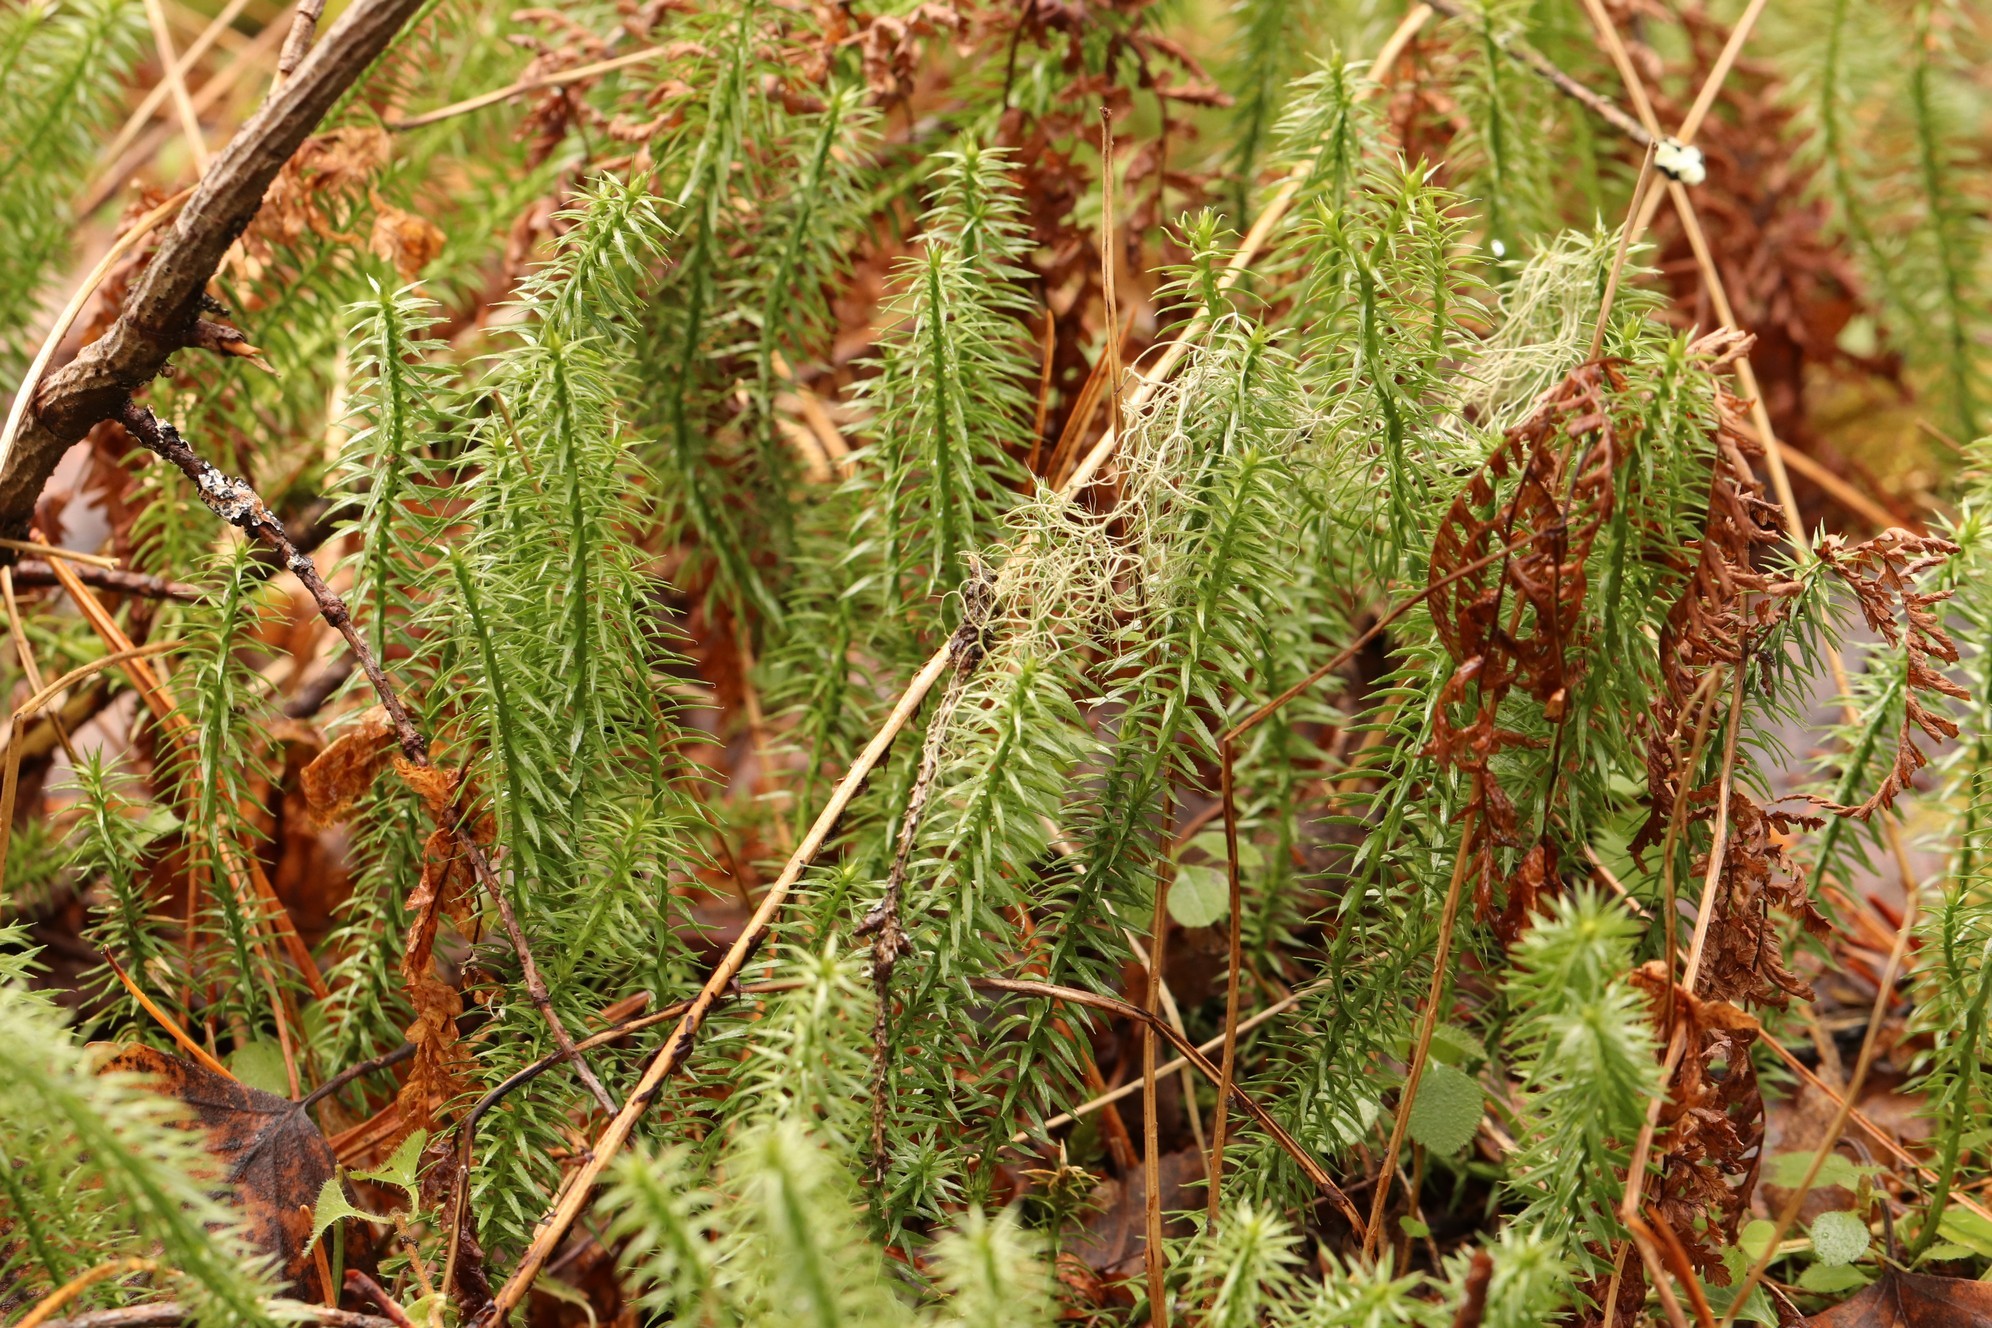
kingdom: Plantae
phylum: Tracheophyta
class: Lycopodiopsida
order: Lycopodiales
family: Lycopodiaceae
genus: Spinulum
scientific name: Spinulum annotinum
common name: Interrupted club-moss
